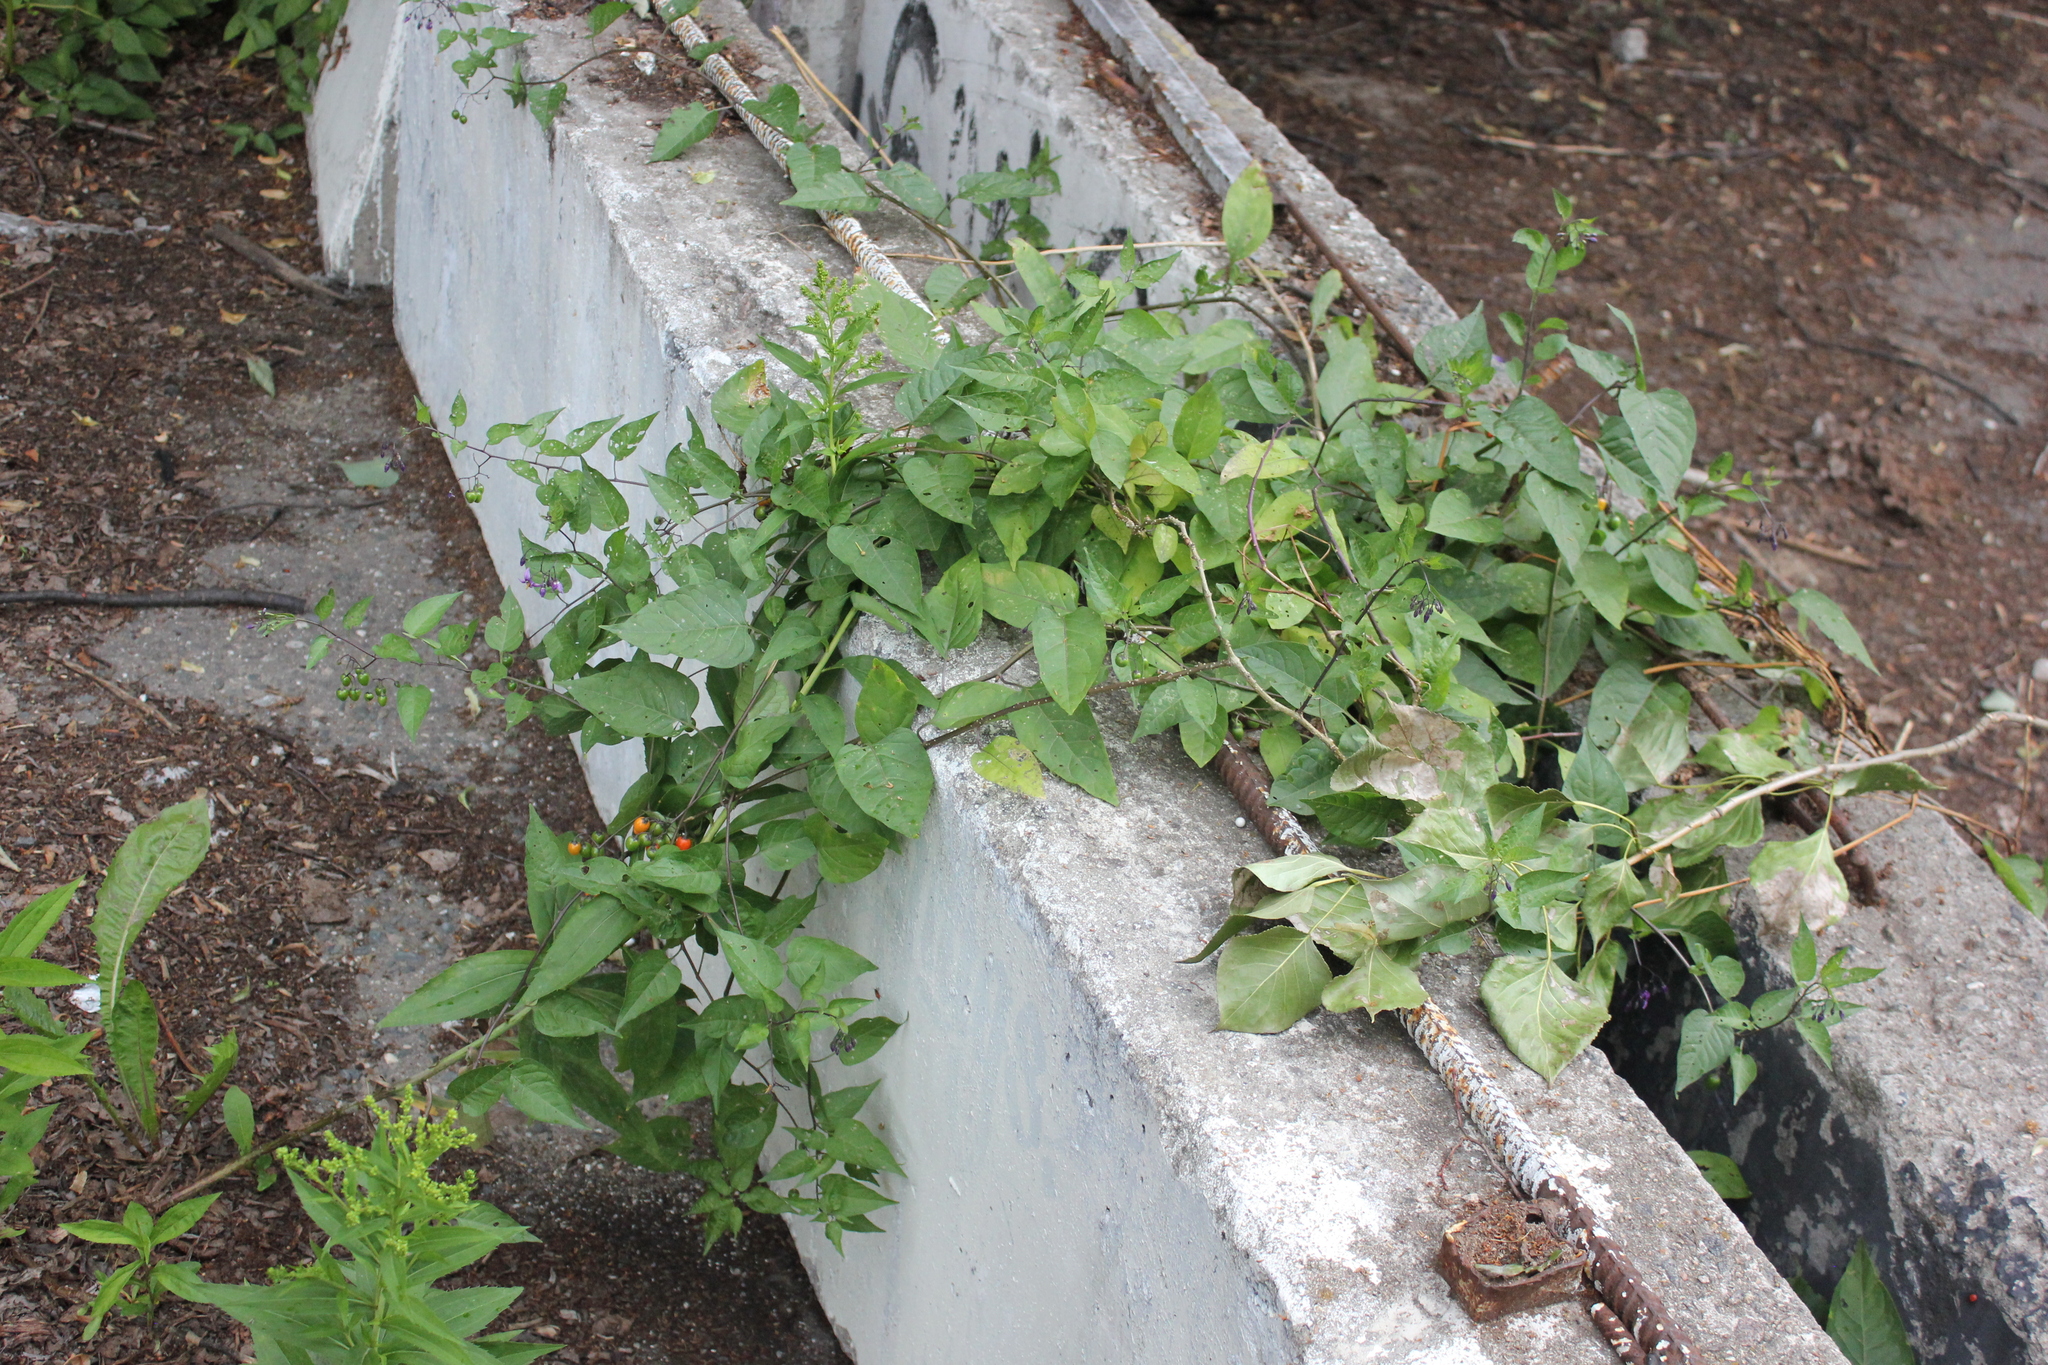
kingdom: Plantae
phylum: Tracheophyta
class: Magnoliopsida
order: Solanales
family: Solanaceae
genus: Solanum
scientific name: Solanum dulcamara
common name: Climbing nightshade
